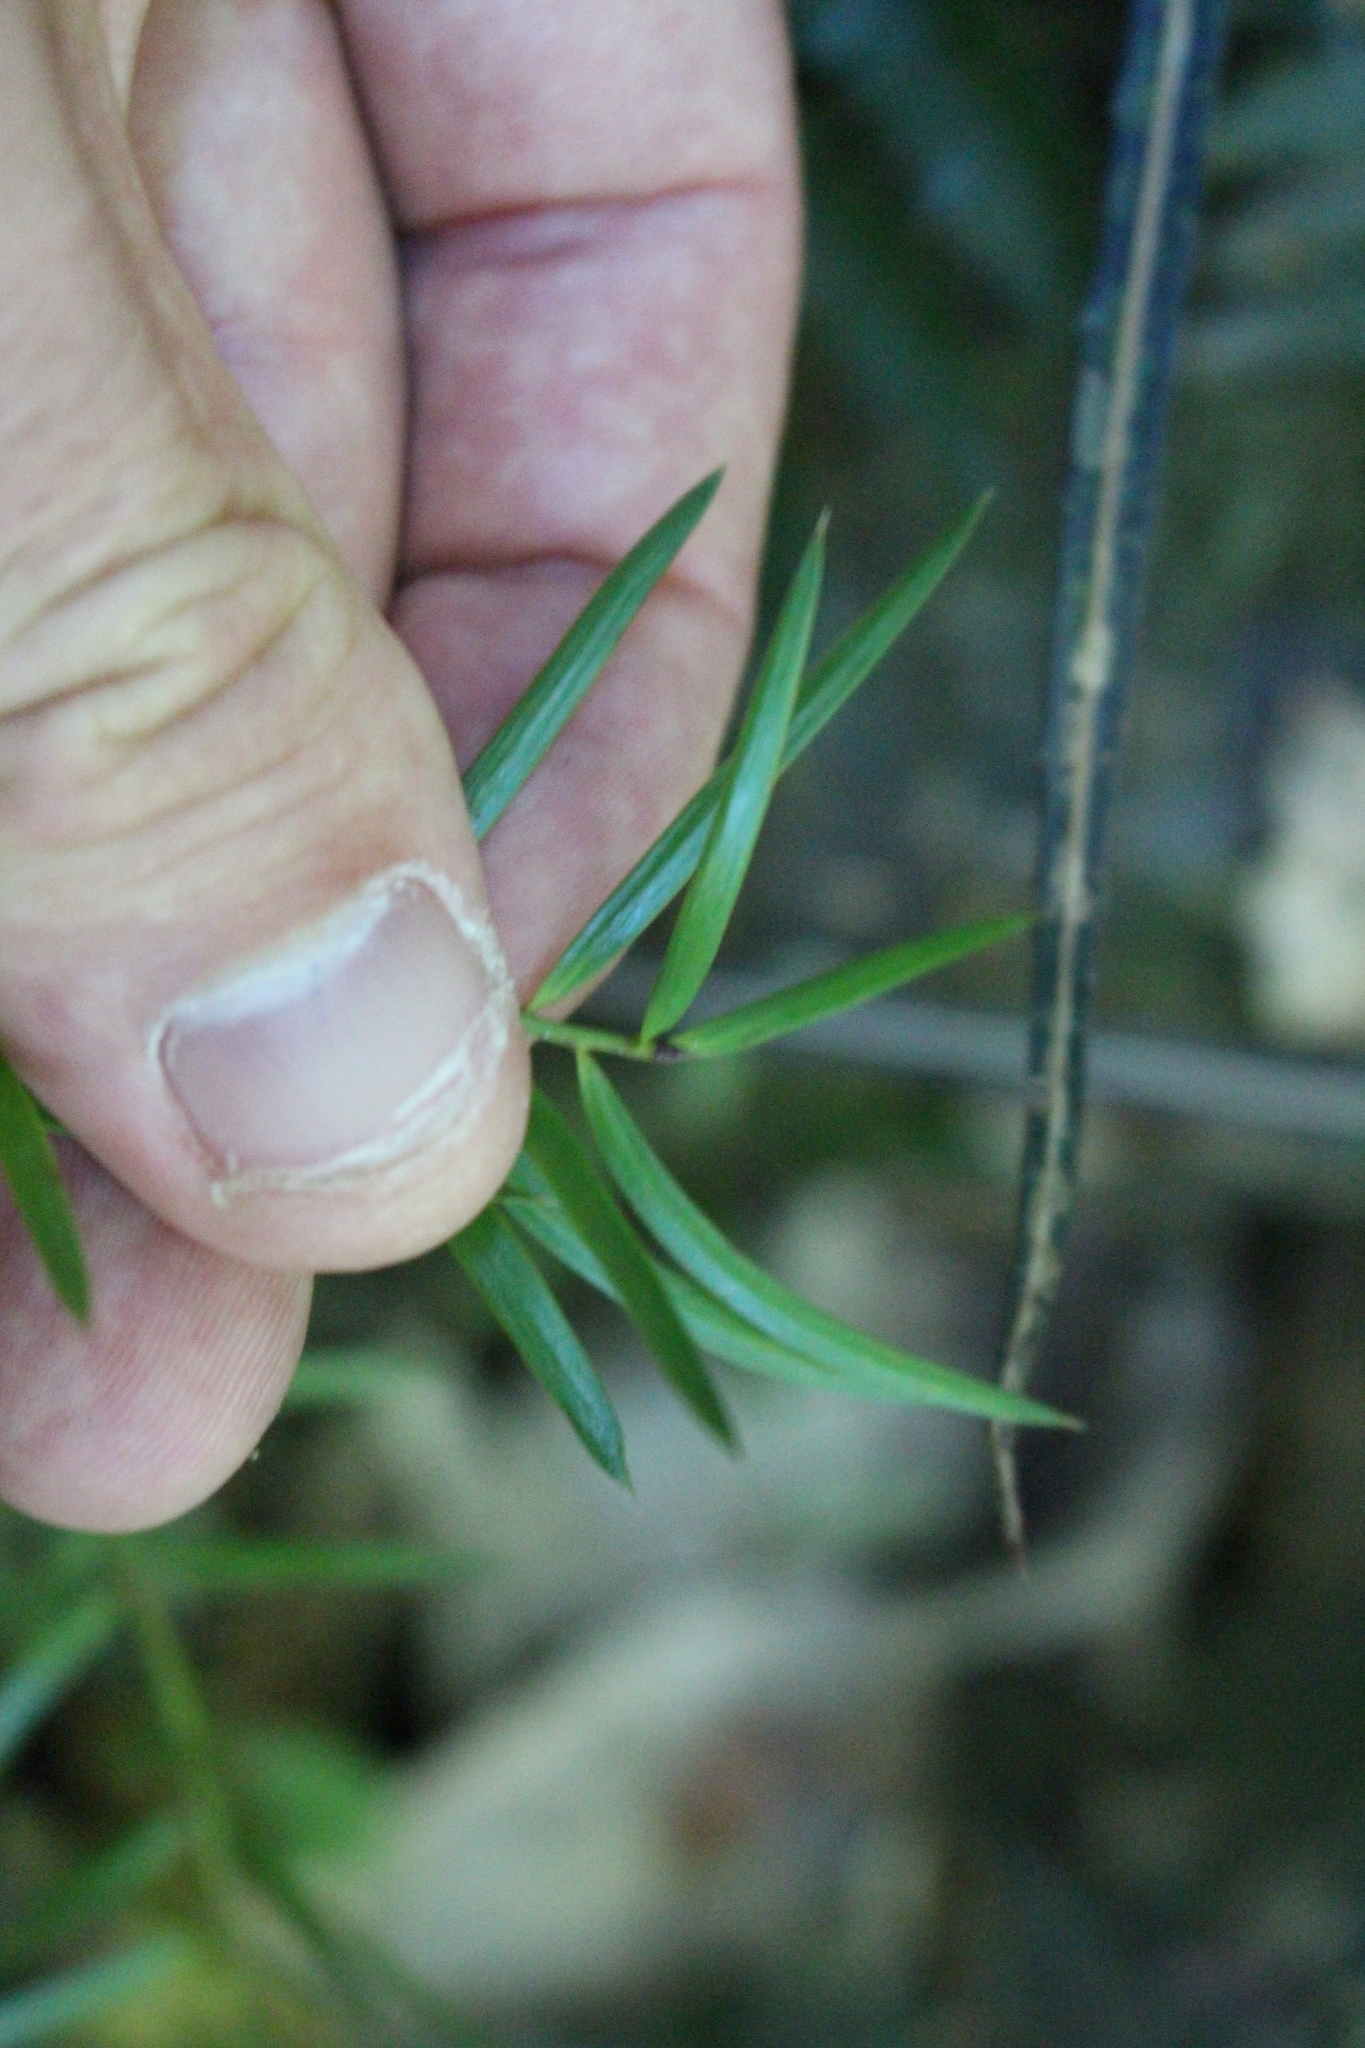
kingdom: Plantae
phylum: Tracheophyta
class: Pinopsida
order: Pinales
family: Podocarpaceae
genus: Podocarpus
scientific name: Podocarpus totara
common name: Totara
